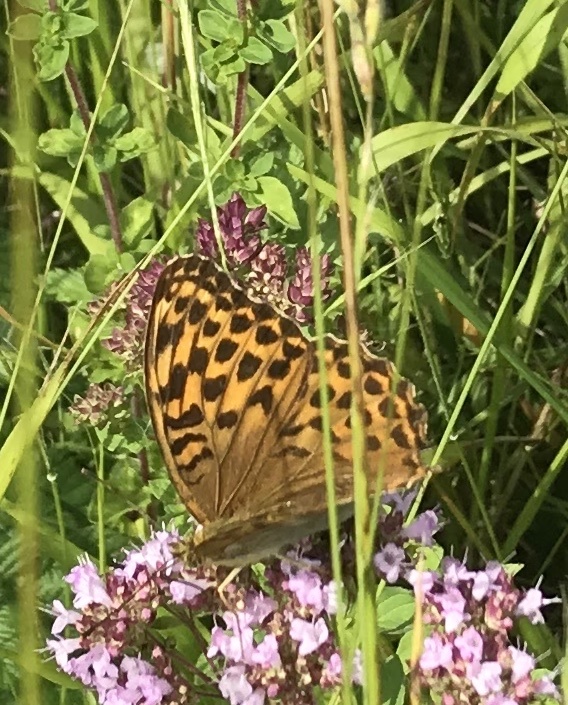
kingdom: Animalia
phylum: Arthropoda
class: Insecta
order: Lepidoptera
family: Nymphalidae
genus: Argynnis
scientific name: Argynnis paphia
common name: Silver-washed fritillary
